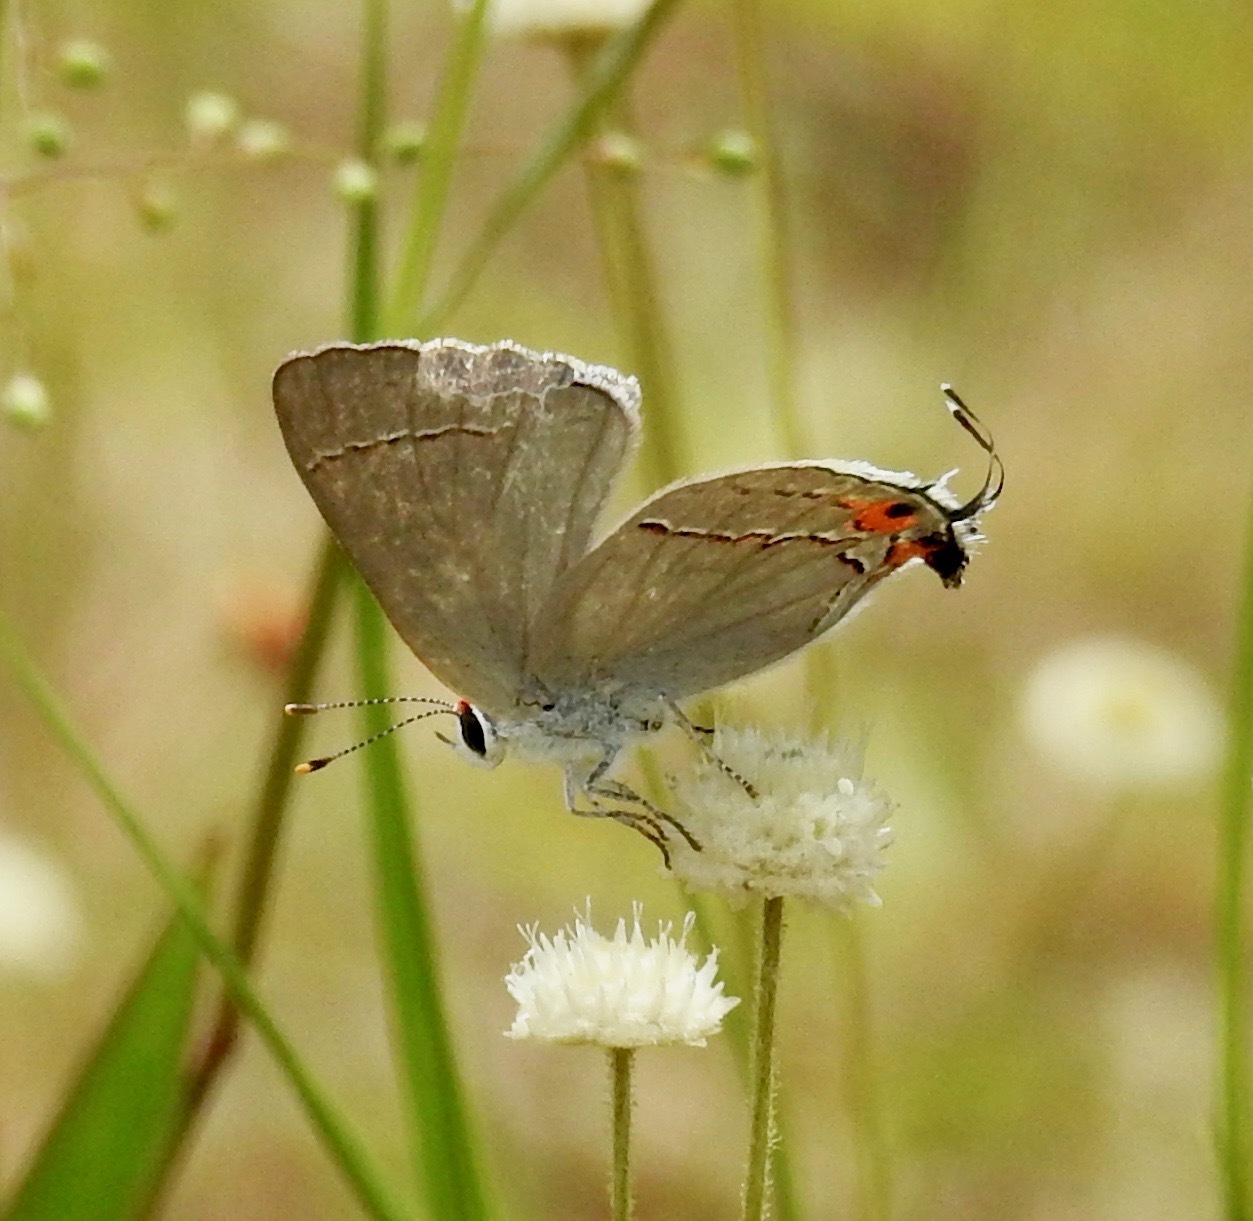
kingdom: Animalia
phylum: Arthropoda
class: Insecta
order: Lepidoptera
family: Lycaenidae
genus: Strymon
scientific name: Strymon melinus
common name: Gray hairstreak
